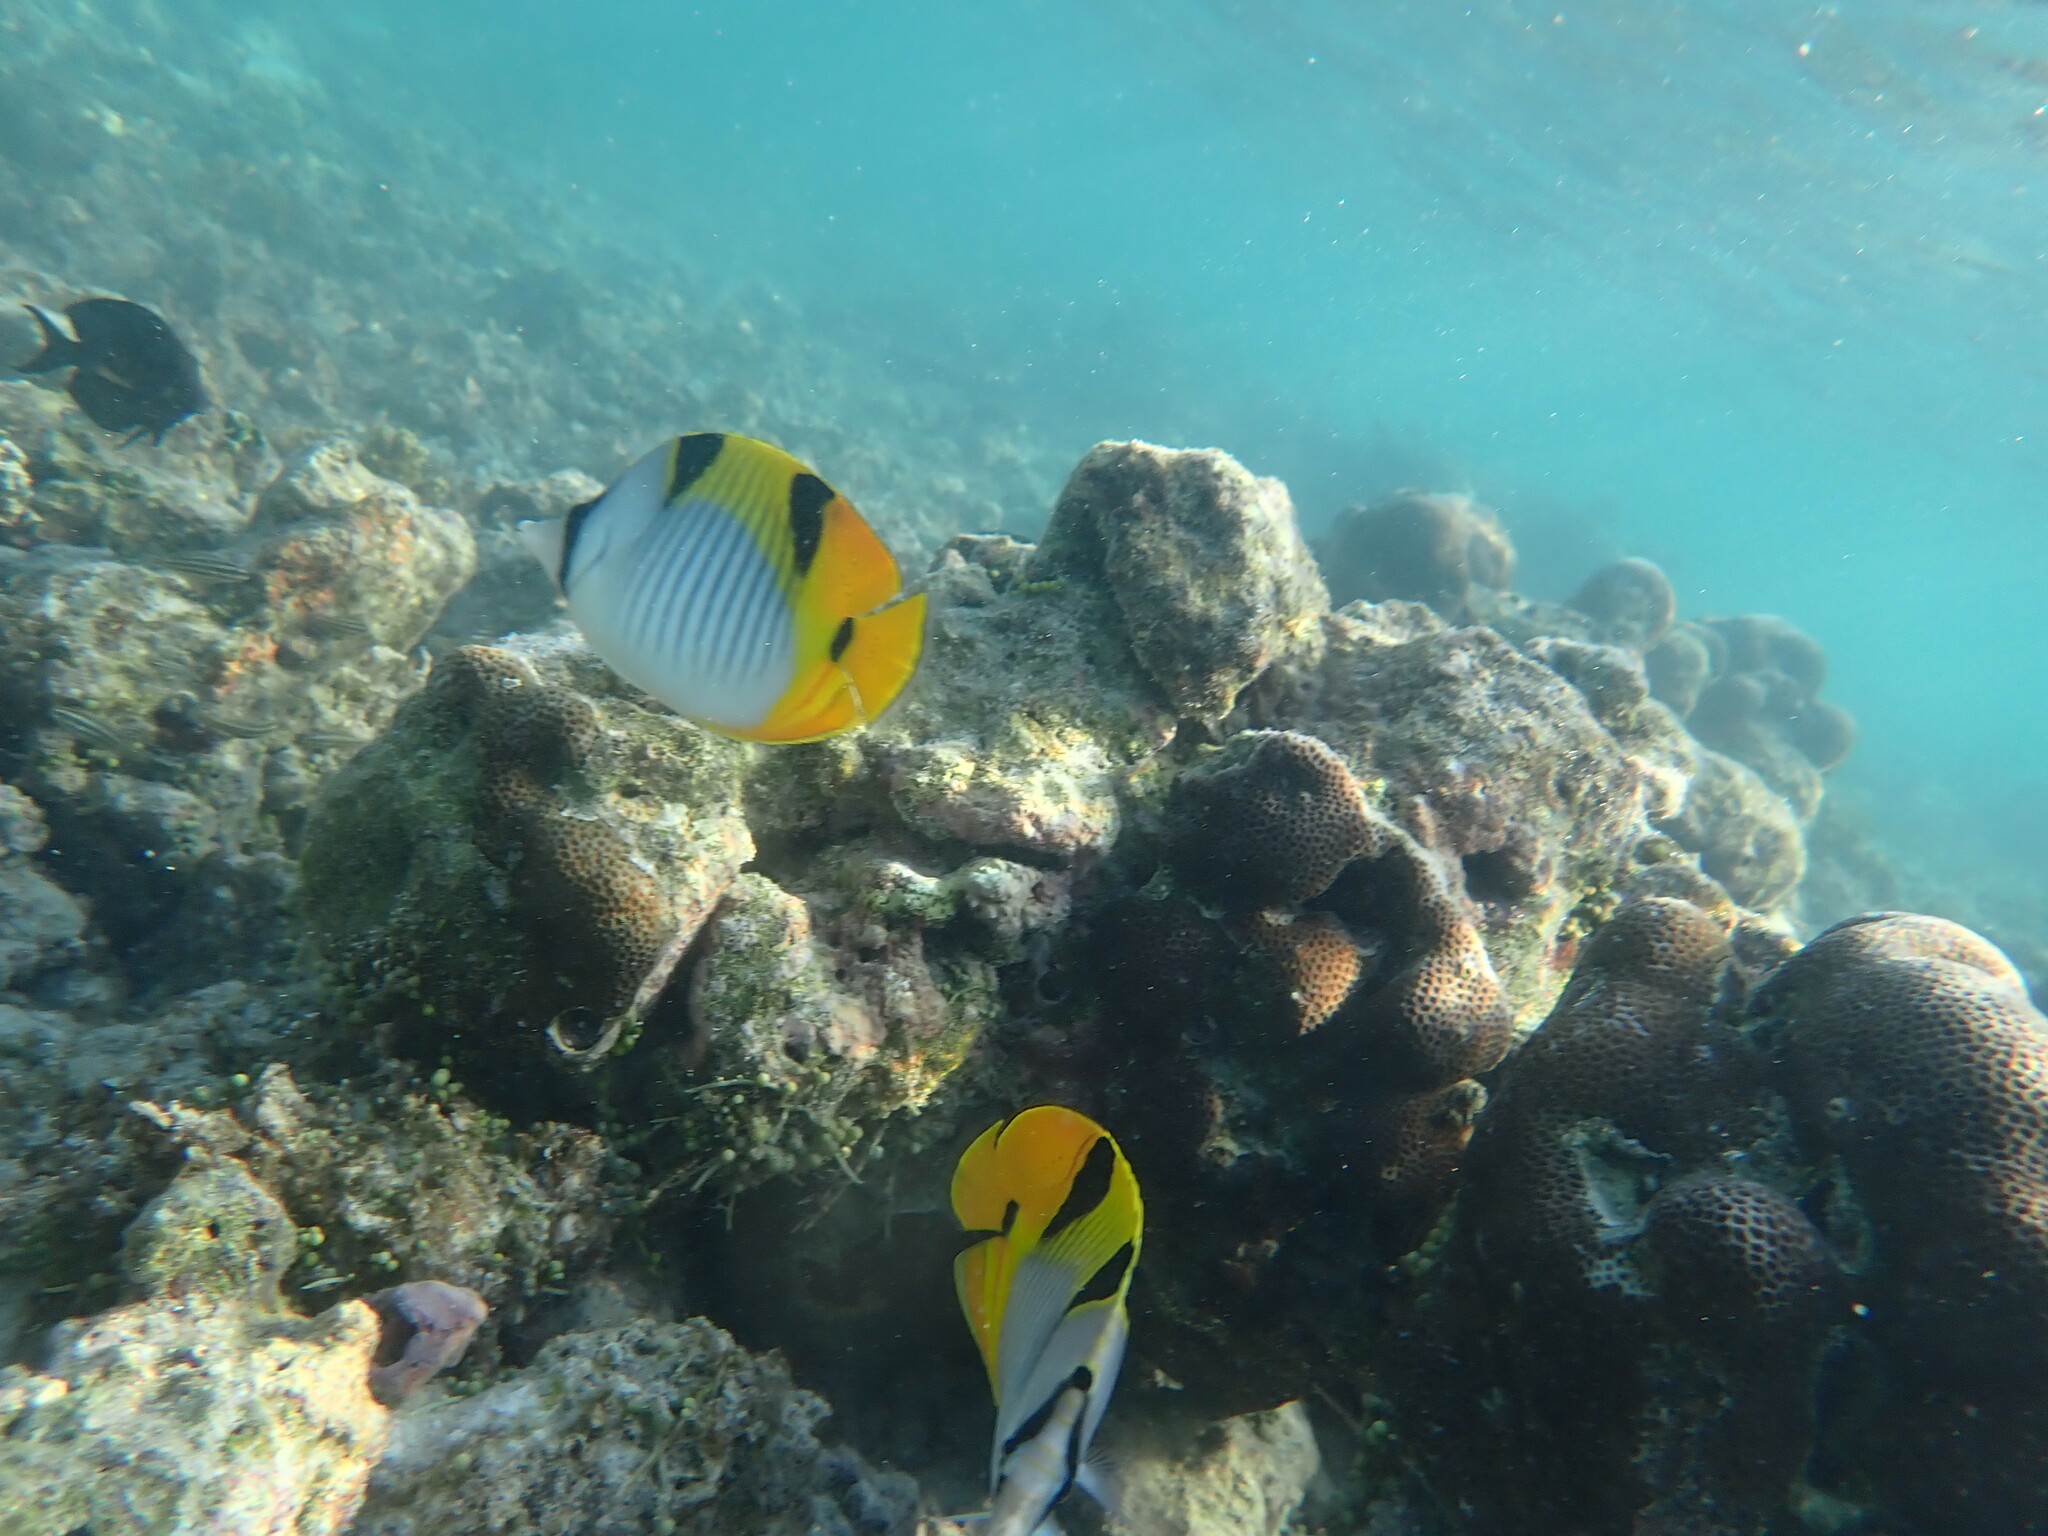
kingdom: Animalia
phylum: Chordata
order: Perciformes
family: Chaetodontidae
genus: Chaetodon
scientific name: Chaetodon falcula
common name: Blackwedged butterflyfish
